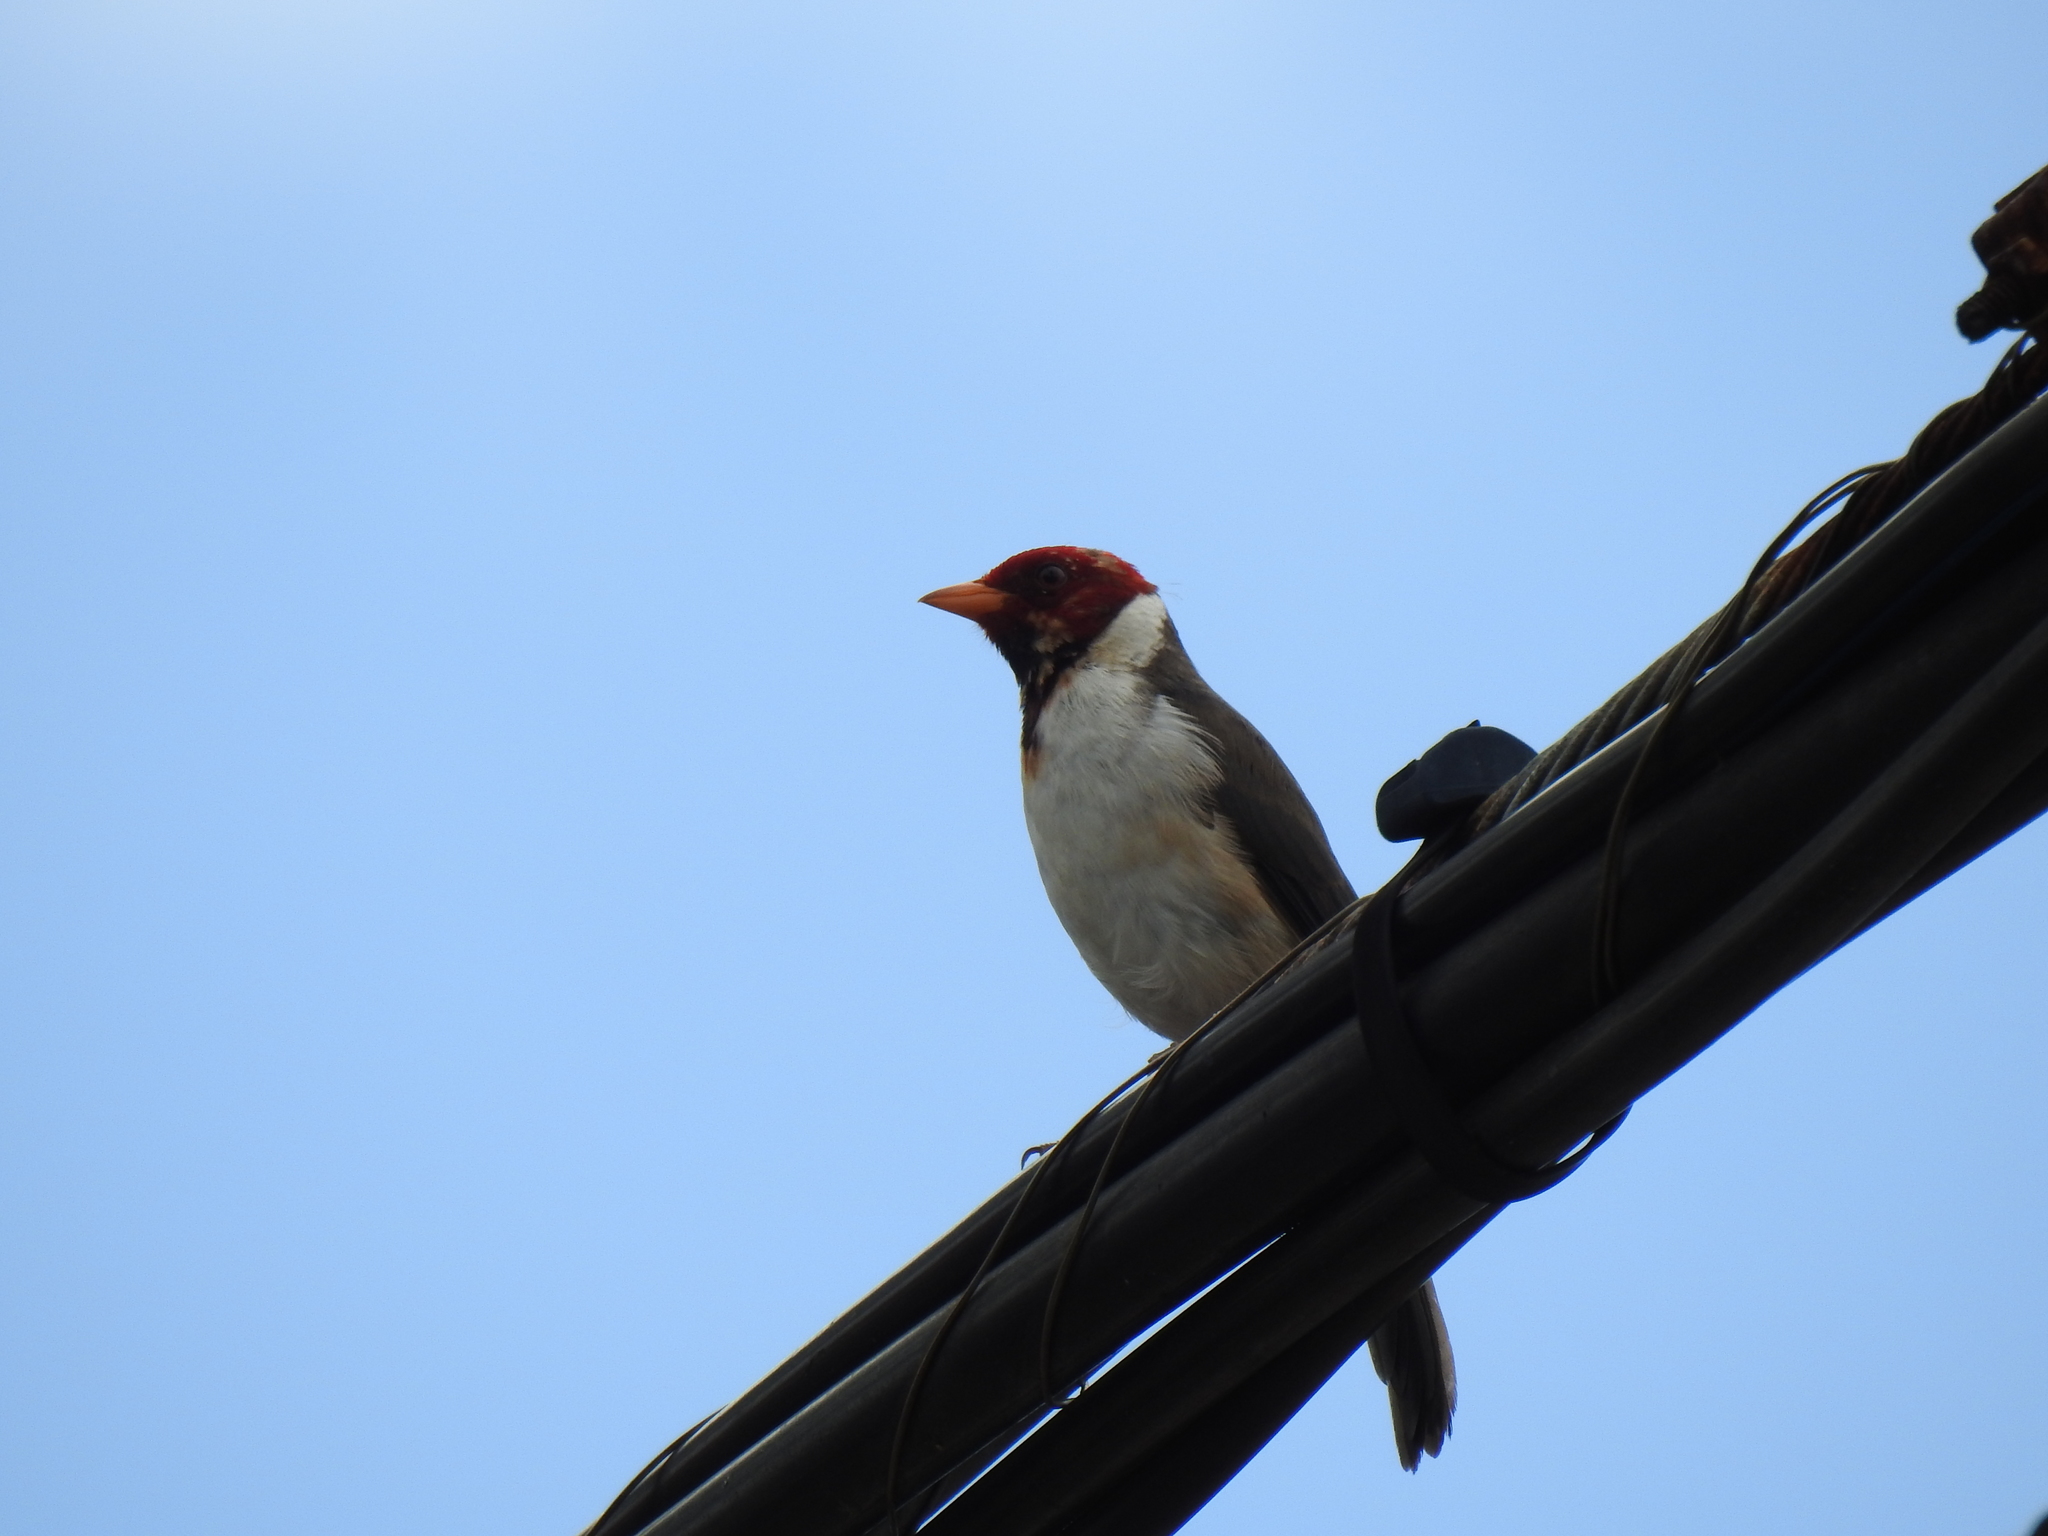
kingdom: Animalia
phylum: Chordata
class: Aves
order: Passeriformes
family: Thraupidae
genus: Paroaria
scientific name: Paroaria capitata
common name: Yellow-billed cardinal
